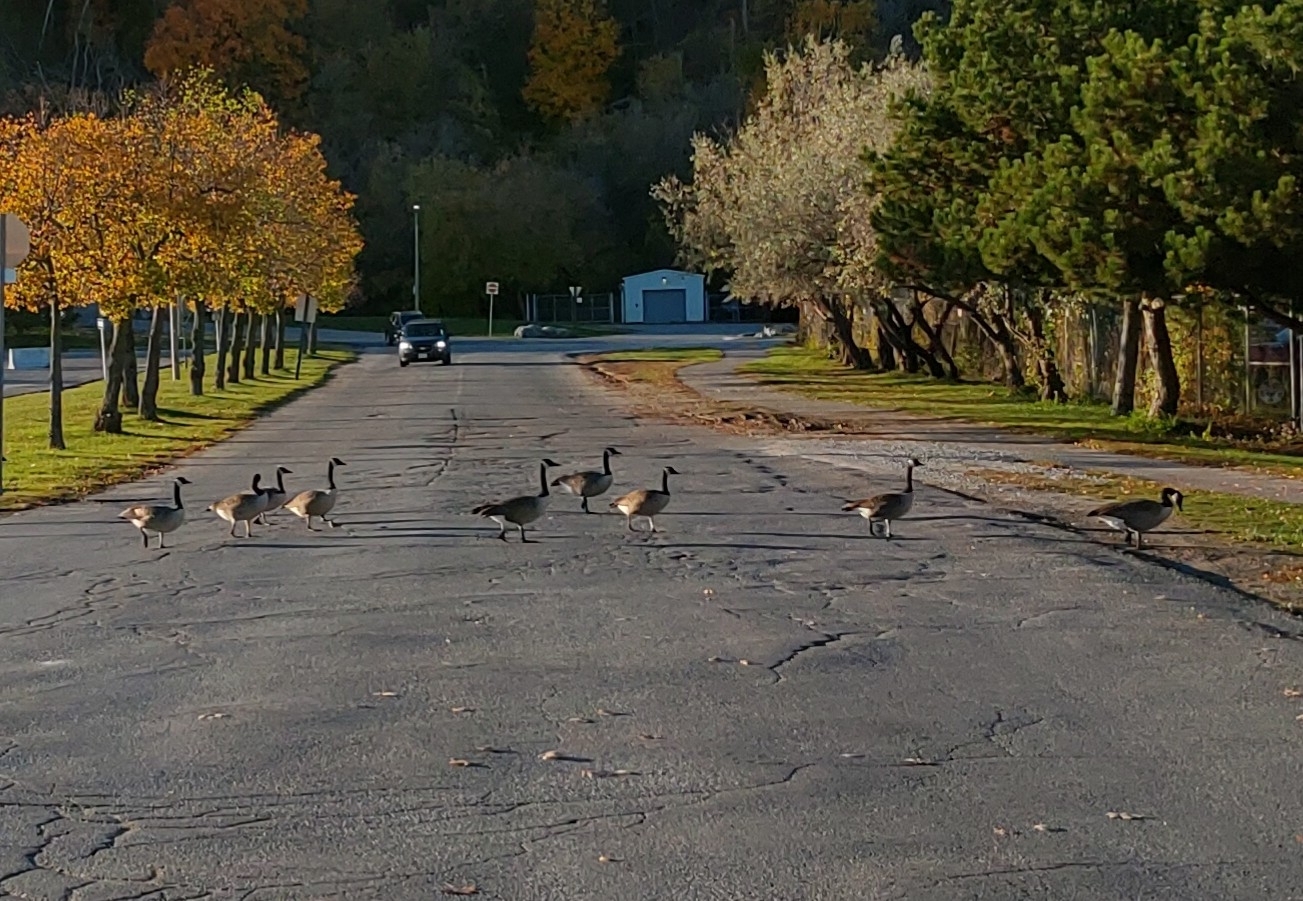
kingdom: Animalia
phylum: Chordata
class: Aves
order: Anseriformes
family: Anatidae
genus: Branta
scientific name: Branta canadensis
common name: Canada goose
